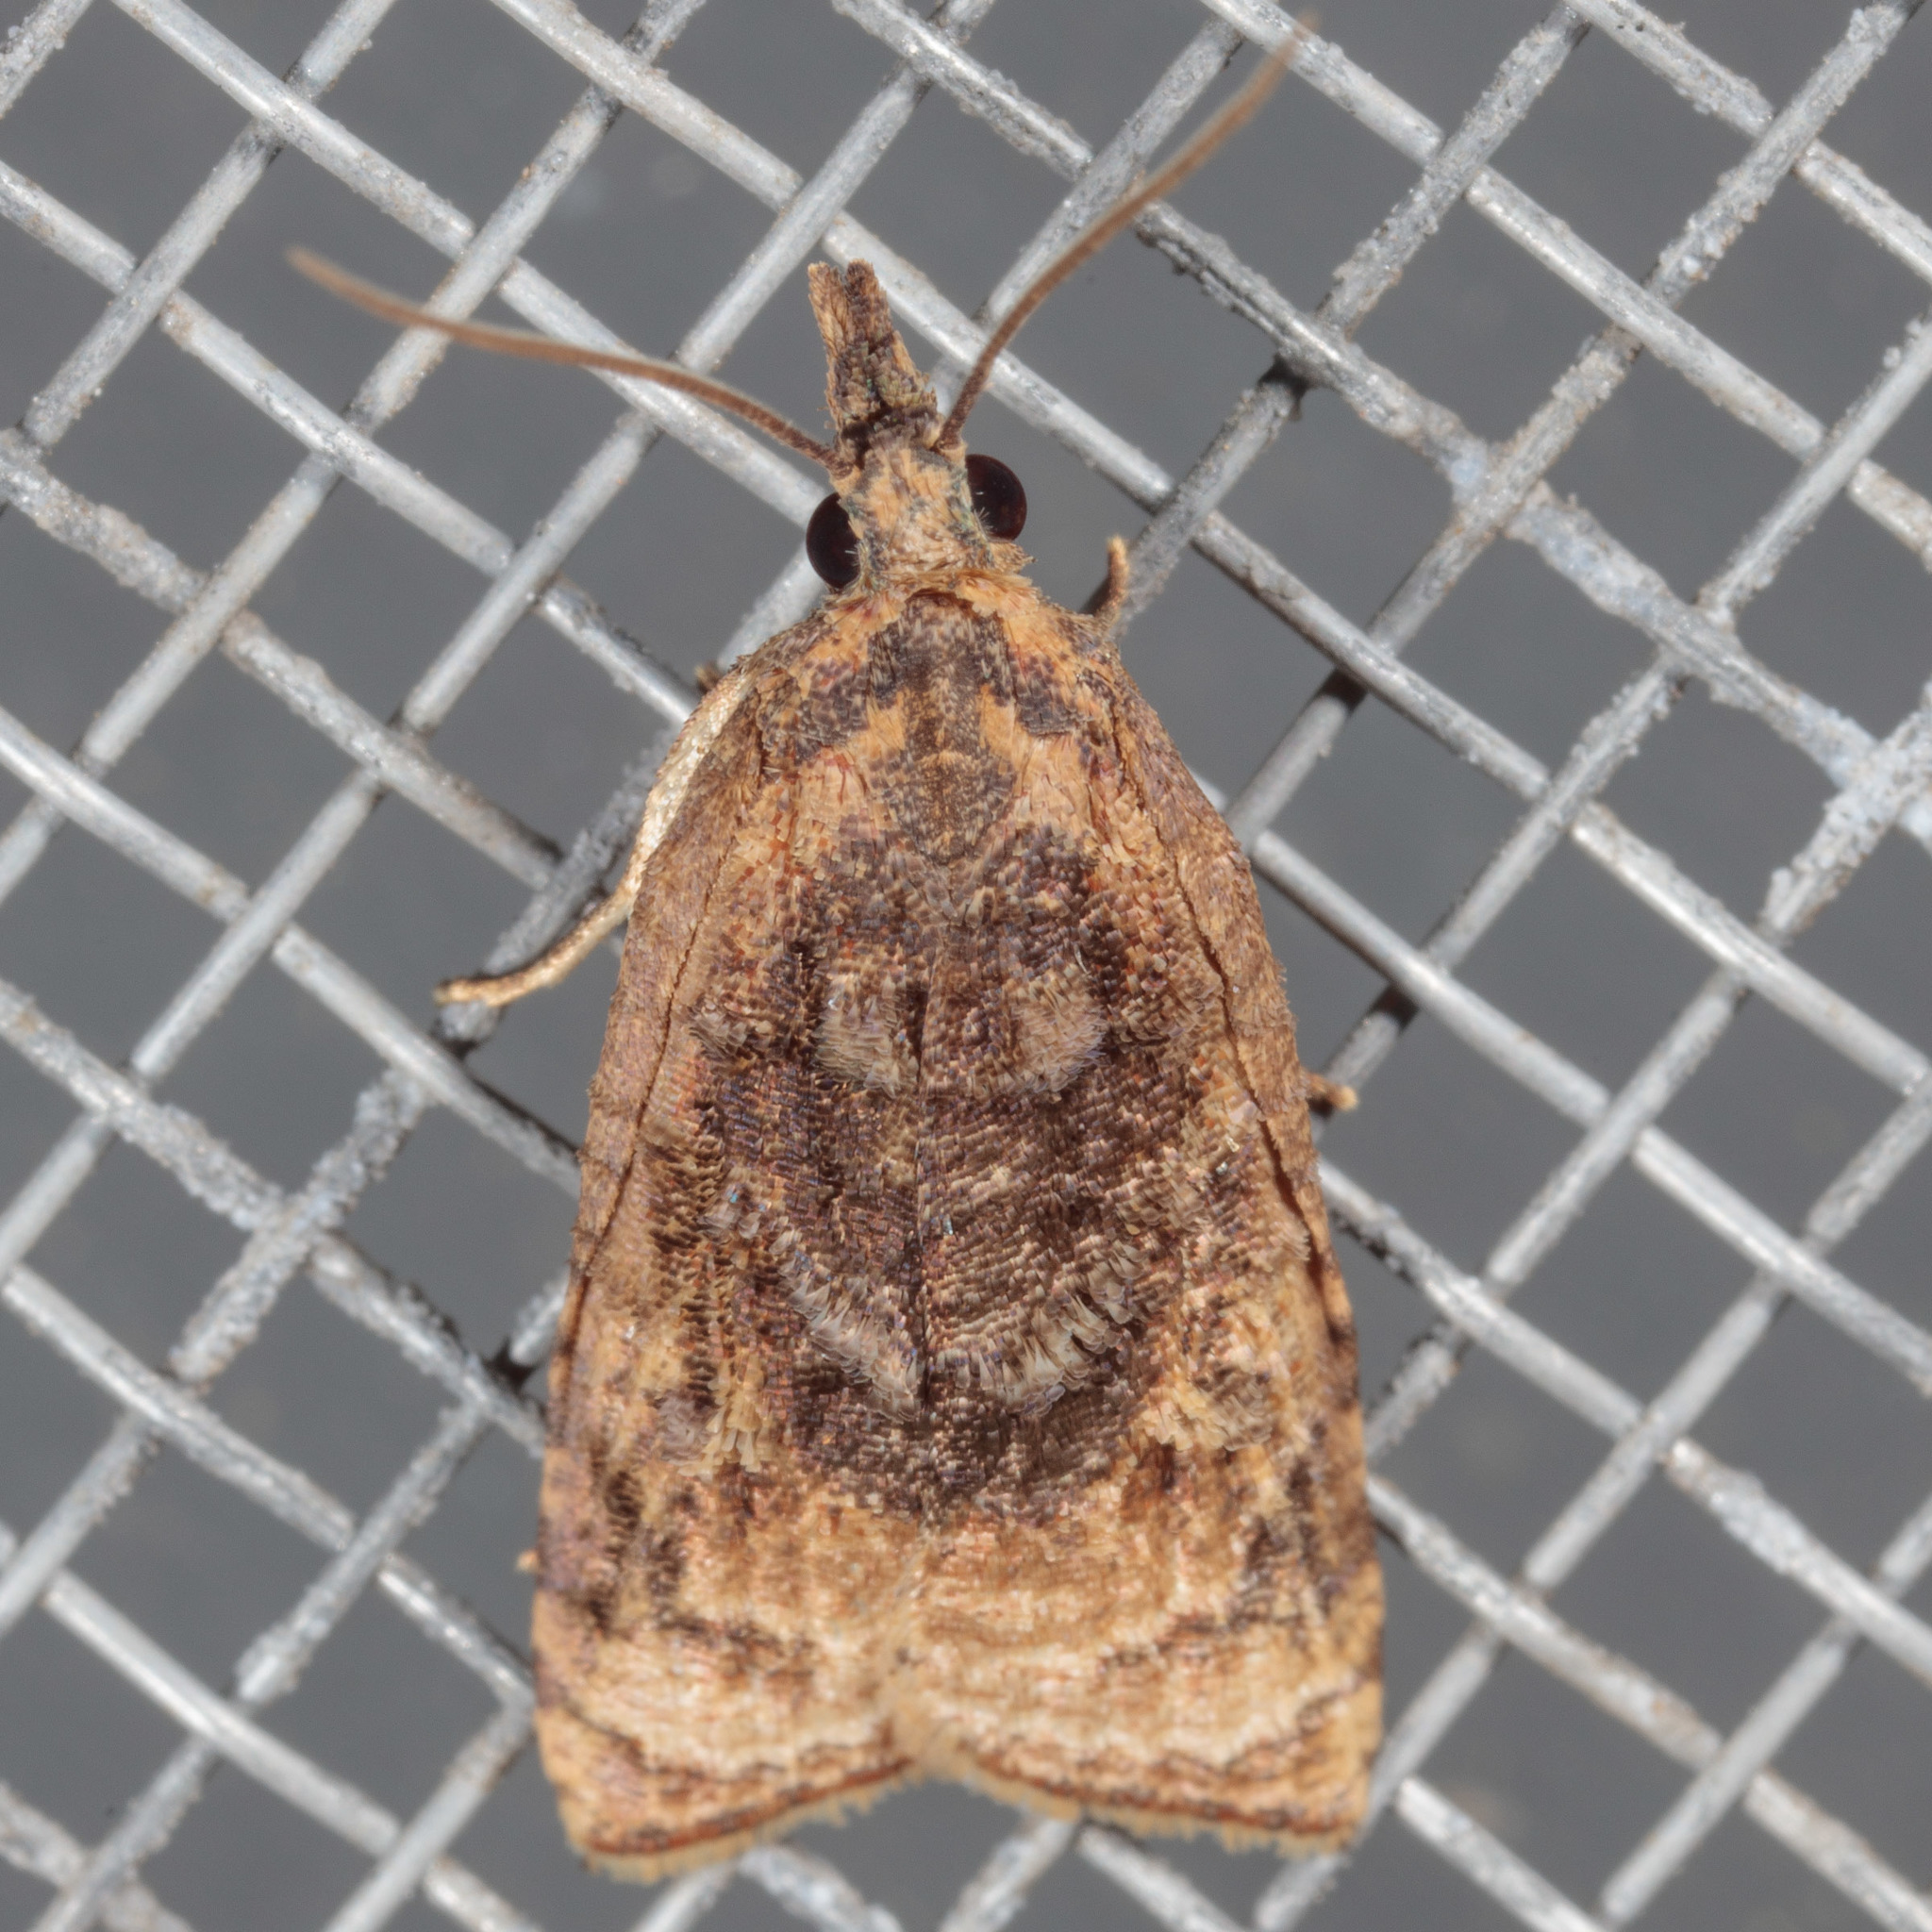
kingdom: Animalia
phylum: Arthropoda
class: Insecta
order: Lepidoptera
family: Tortricidae
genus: Platynota
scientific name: Platynota rostrana
